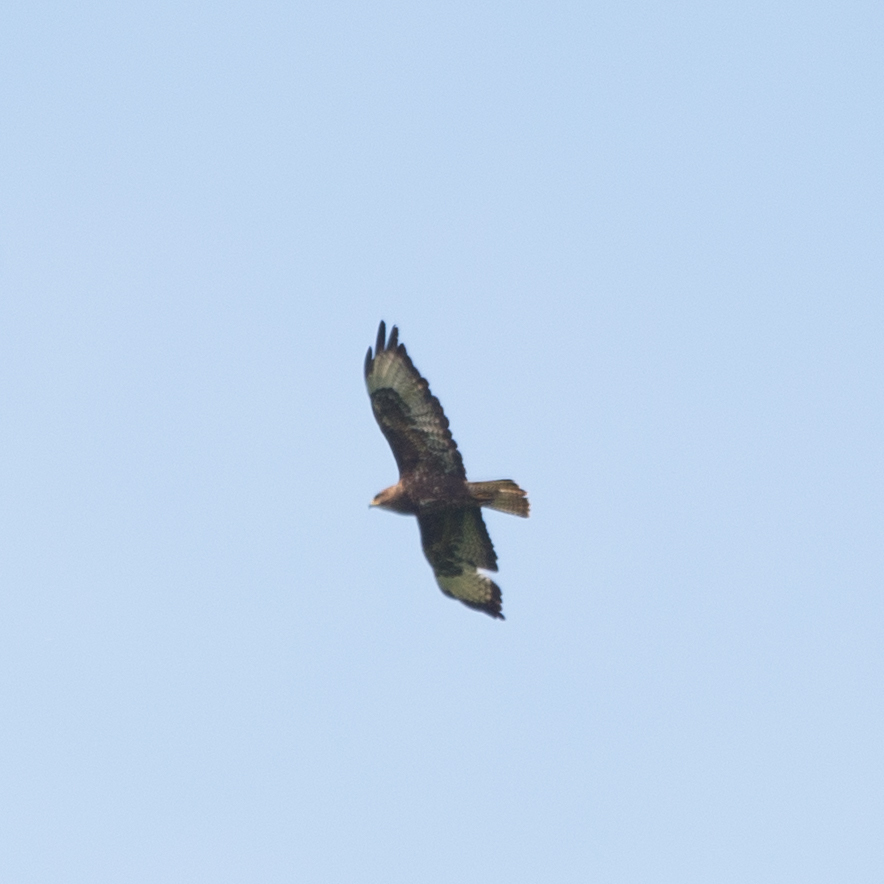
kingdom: Animalia
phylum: Chordata
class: Aves
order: Accipitriformes
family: Accipitridae
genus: Buteo
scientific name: Buteo buteo
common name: Common buzzard
